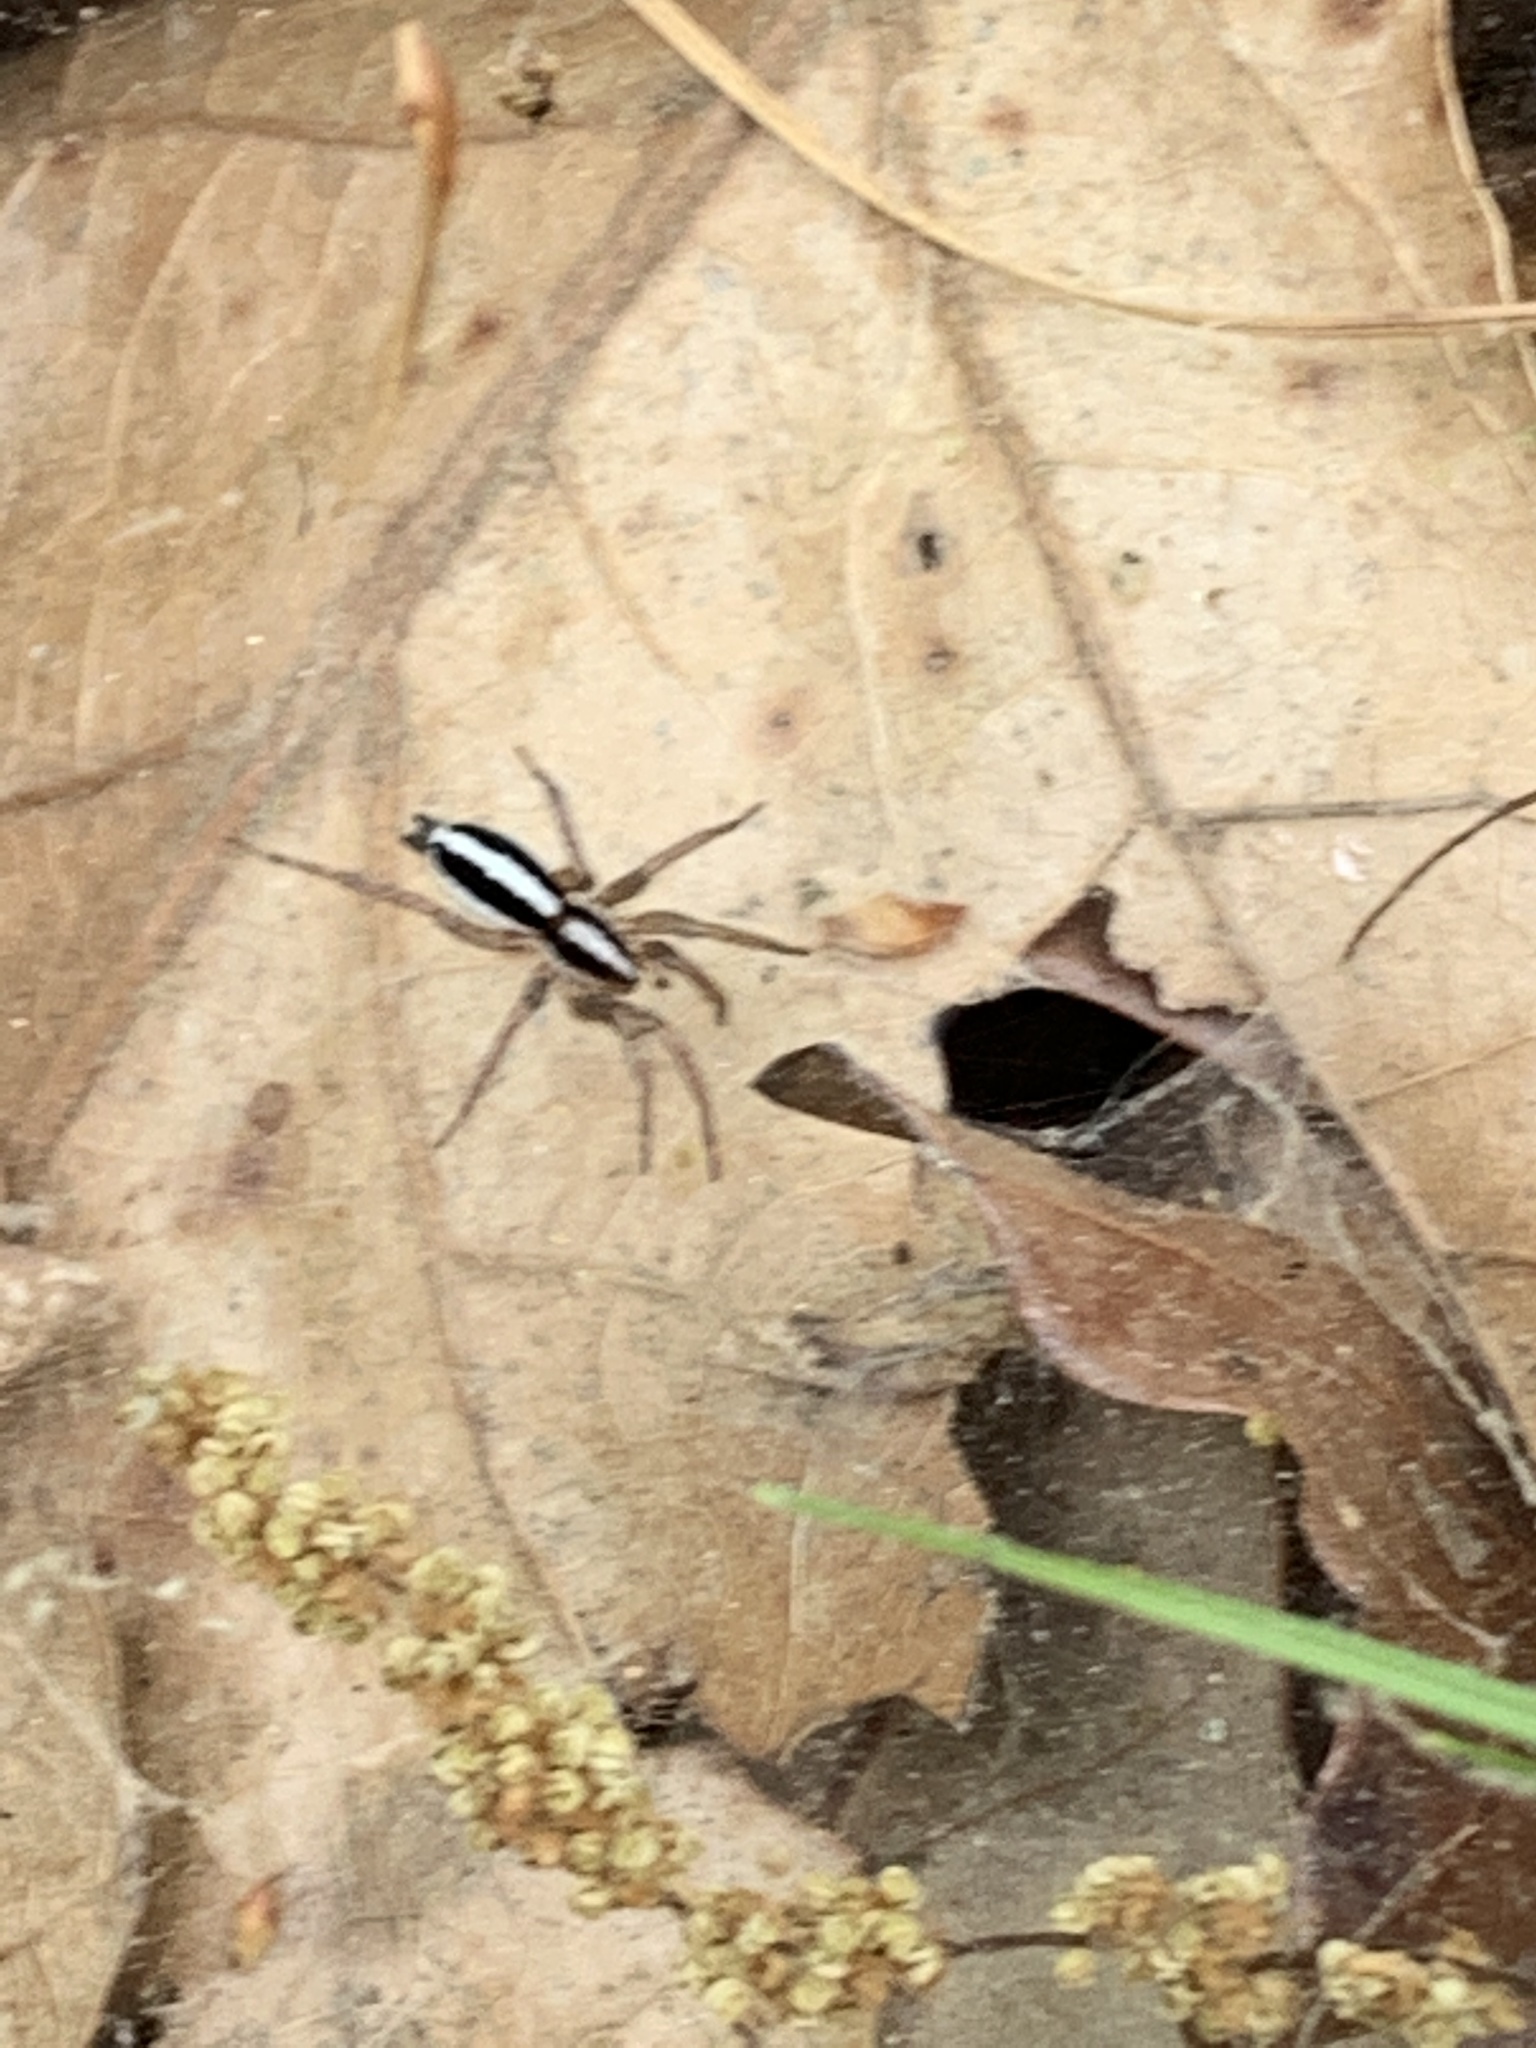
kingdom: Animalia
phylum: Arthropoda
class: Arachnida
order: Araneae
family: Gnaphosidae
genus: Cesonia
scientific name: Cesonia bilineata
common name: Two-lined stealthy ground spider
